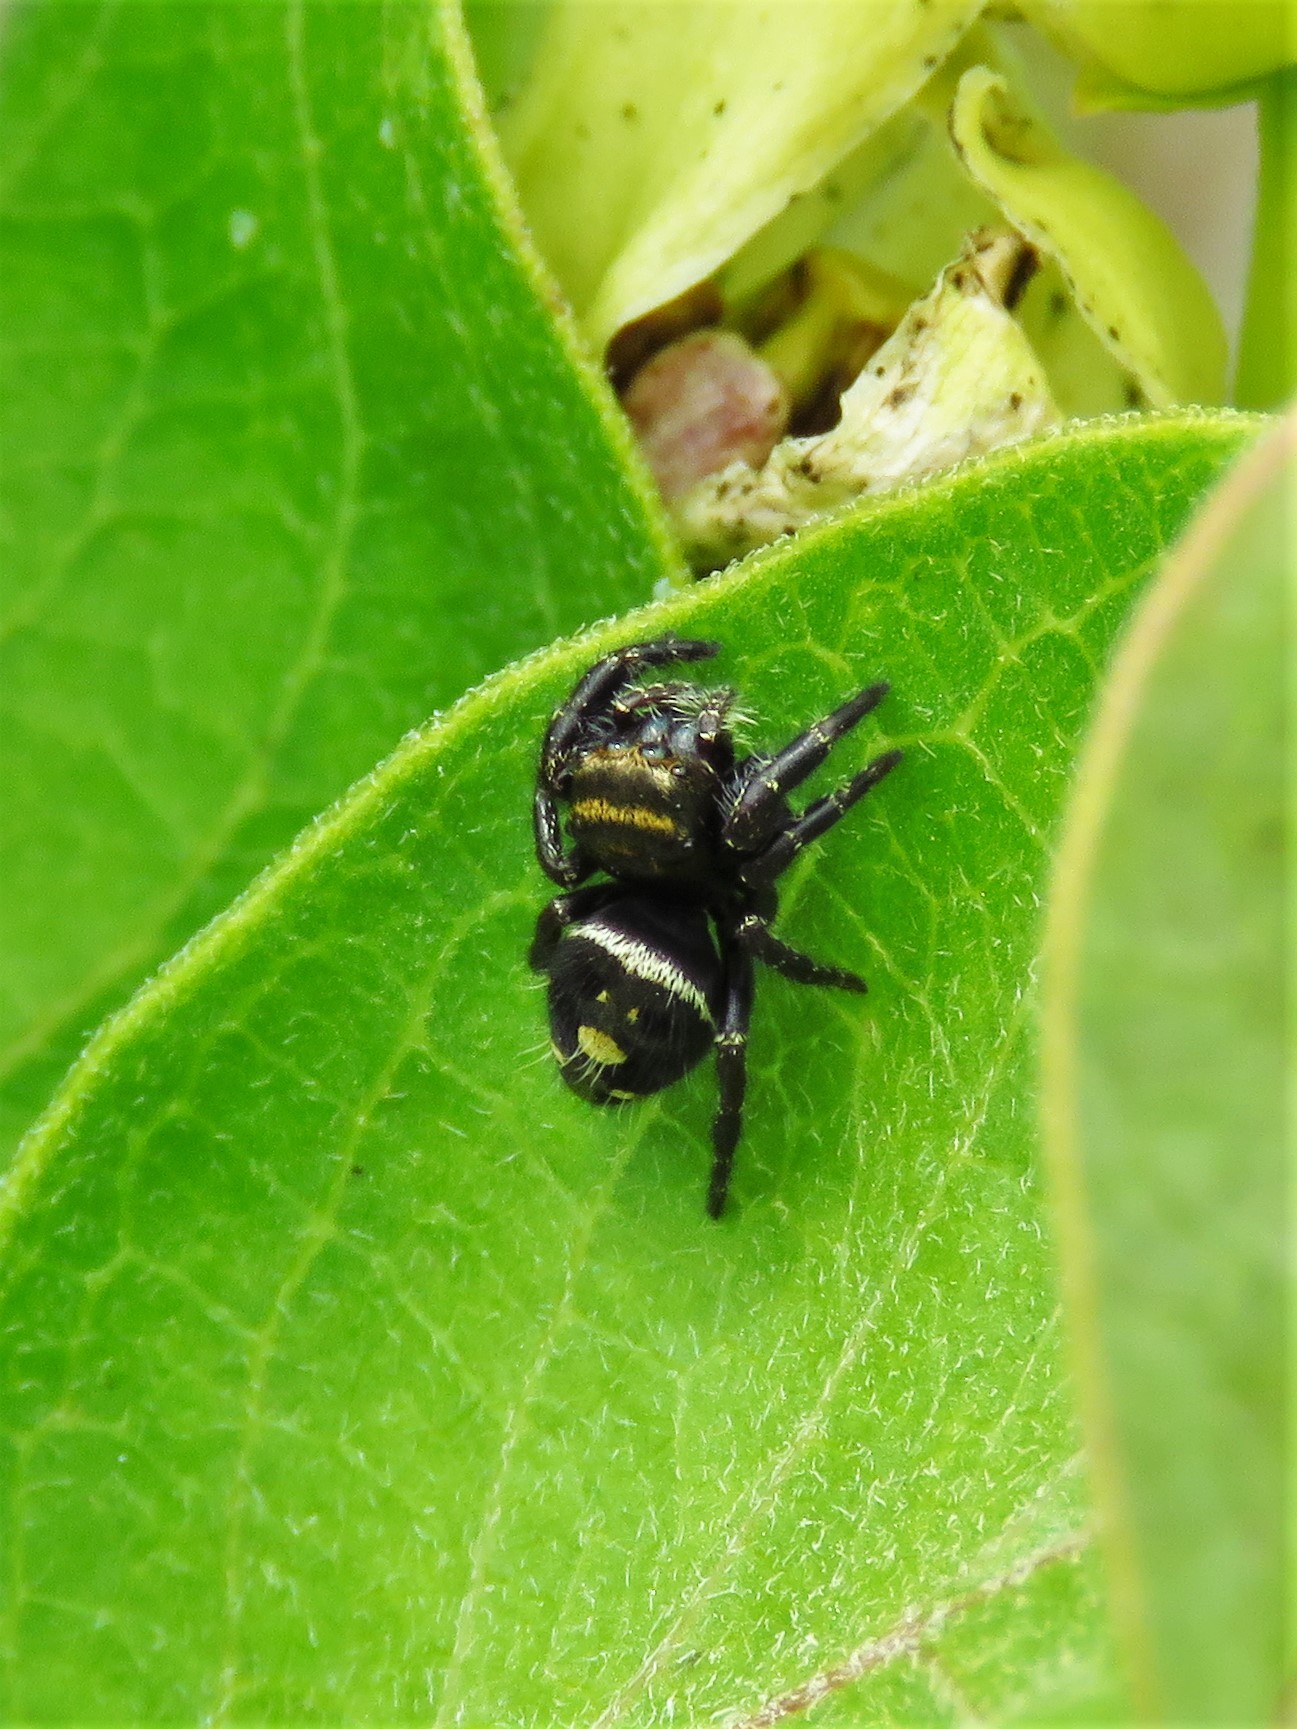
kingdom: Animalia
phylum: Arthropoda
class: Arachnida
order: Araneae
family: Salticidae
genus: Phidippus
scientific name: Phidippus audax
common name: Bold jumper
